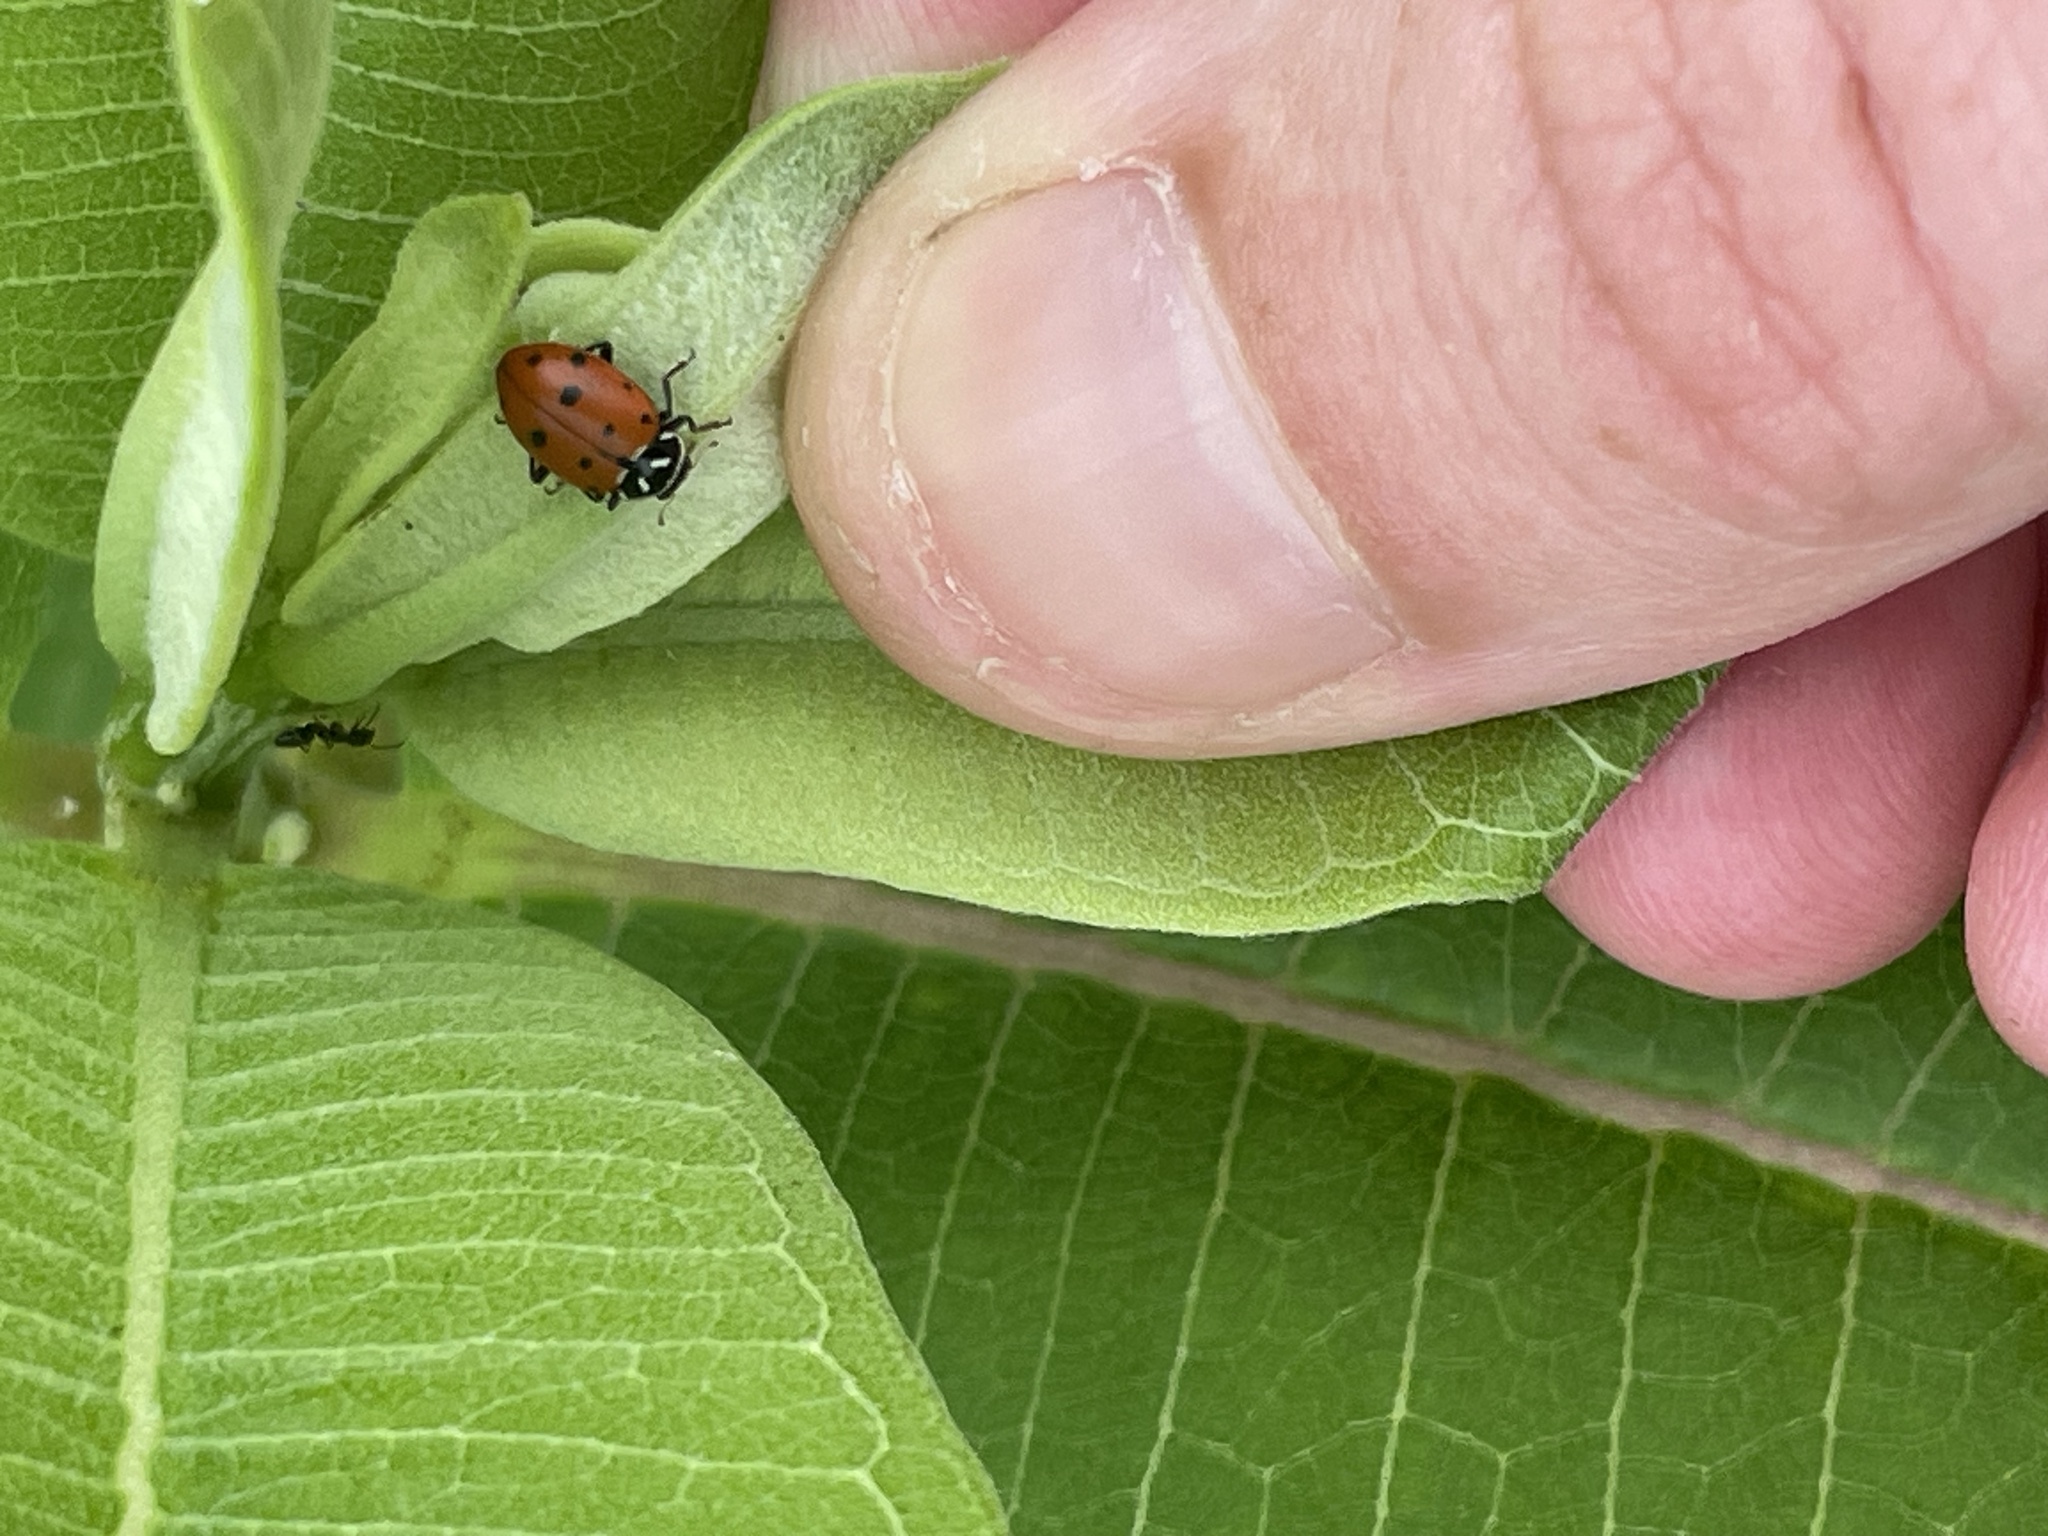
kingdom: Animalia
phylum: Arthropoda
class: Insecta
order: Coleoptera
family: Coccinellidae
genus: Hippodamia
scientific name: Hippodamia convergens
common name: Convergent lady beetle
